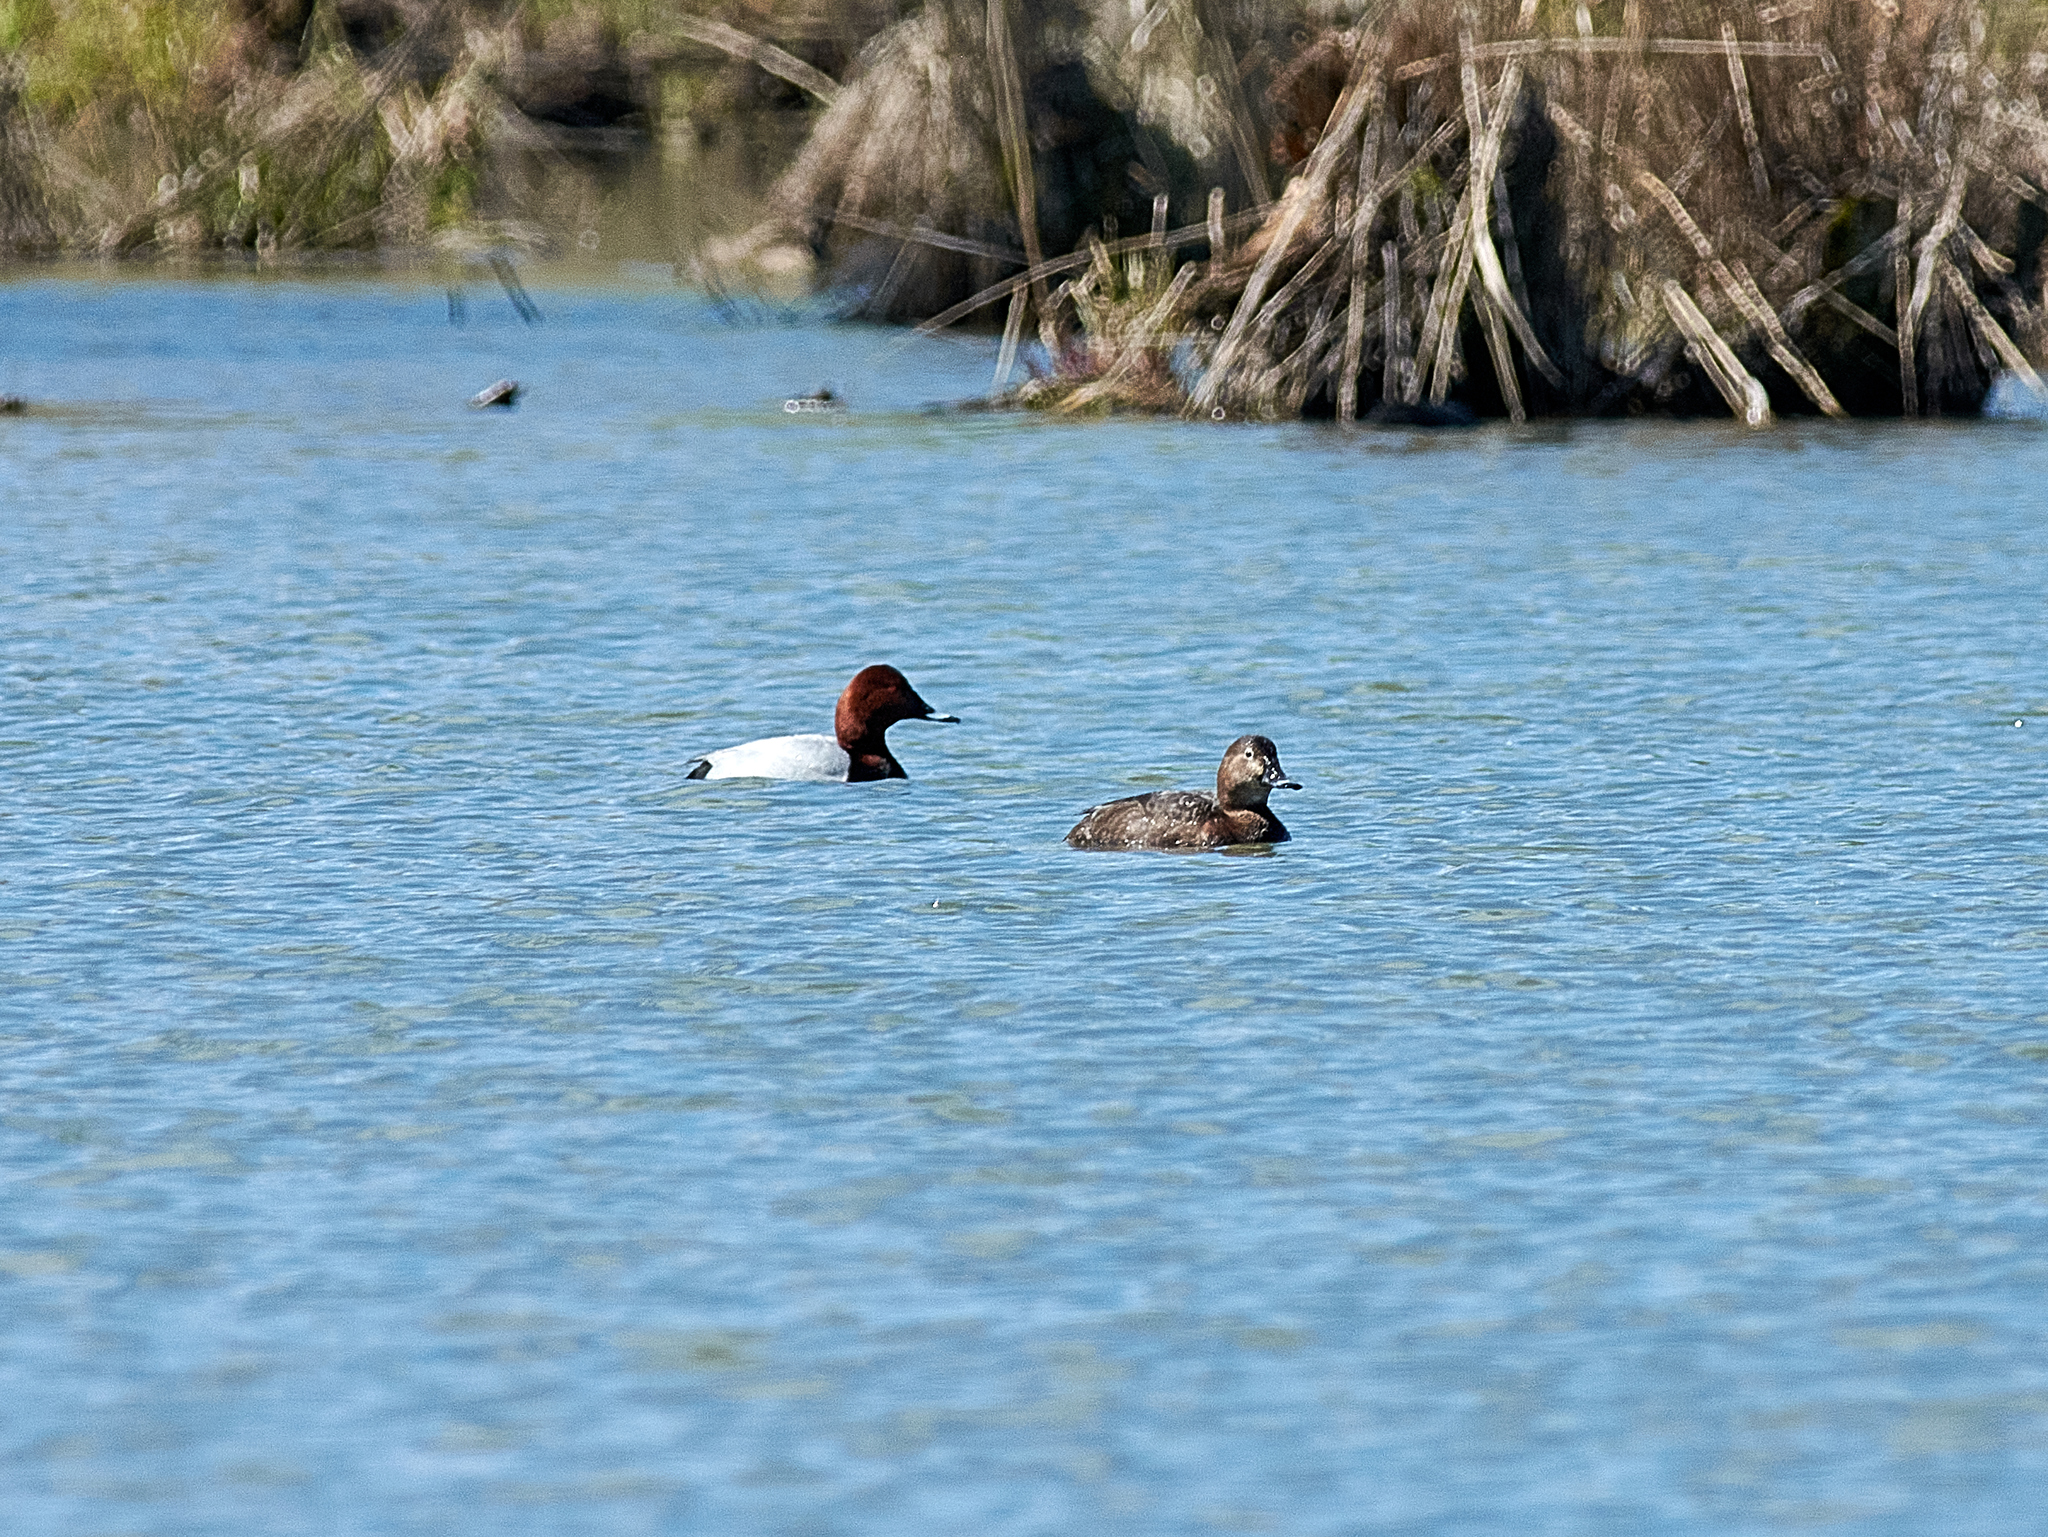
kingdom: Animalia
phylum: Chordata
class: Aves
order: Anseriformes
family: Anatidae
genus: Aythya
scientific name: Aythya ferina
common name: Common pochard
